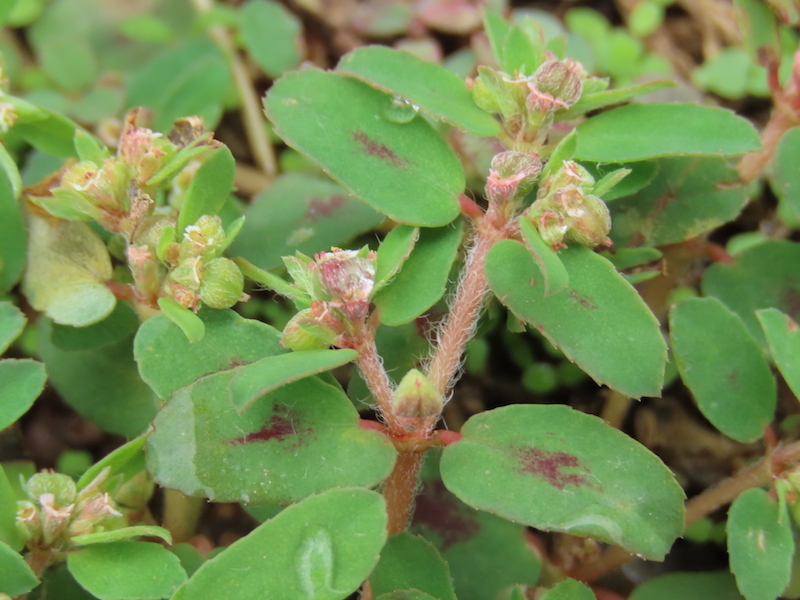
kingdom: Plantae
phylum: Tracheophyta
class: Magnoliopsida
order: Malpighiales
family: Euphorbiaceae
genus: Euphorbia
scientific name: Euphorbia maculata
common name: Spotted spurge
